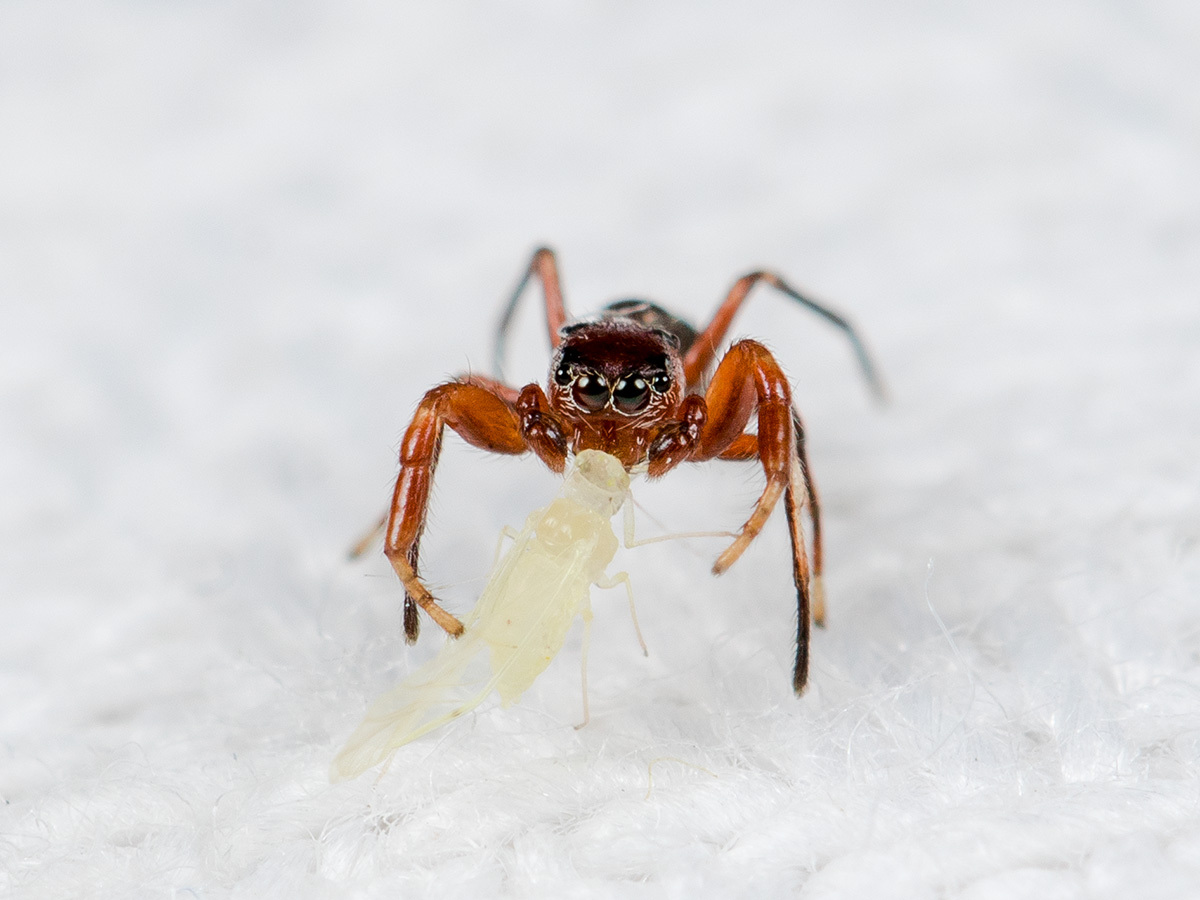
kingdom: Animalia
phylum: Arthropoda
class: Arachnida
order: Araneae
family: Salticidae
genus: Synageles
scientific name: Synageles charitonovi
